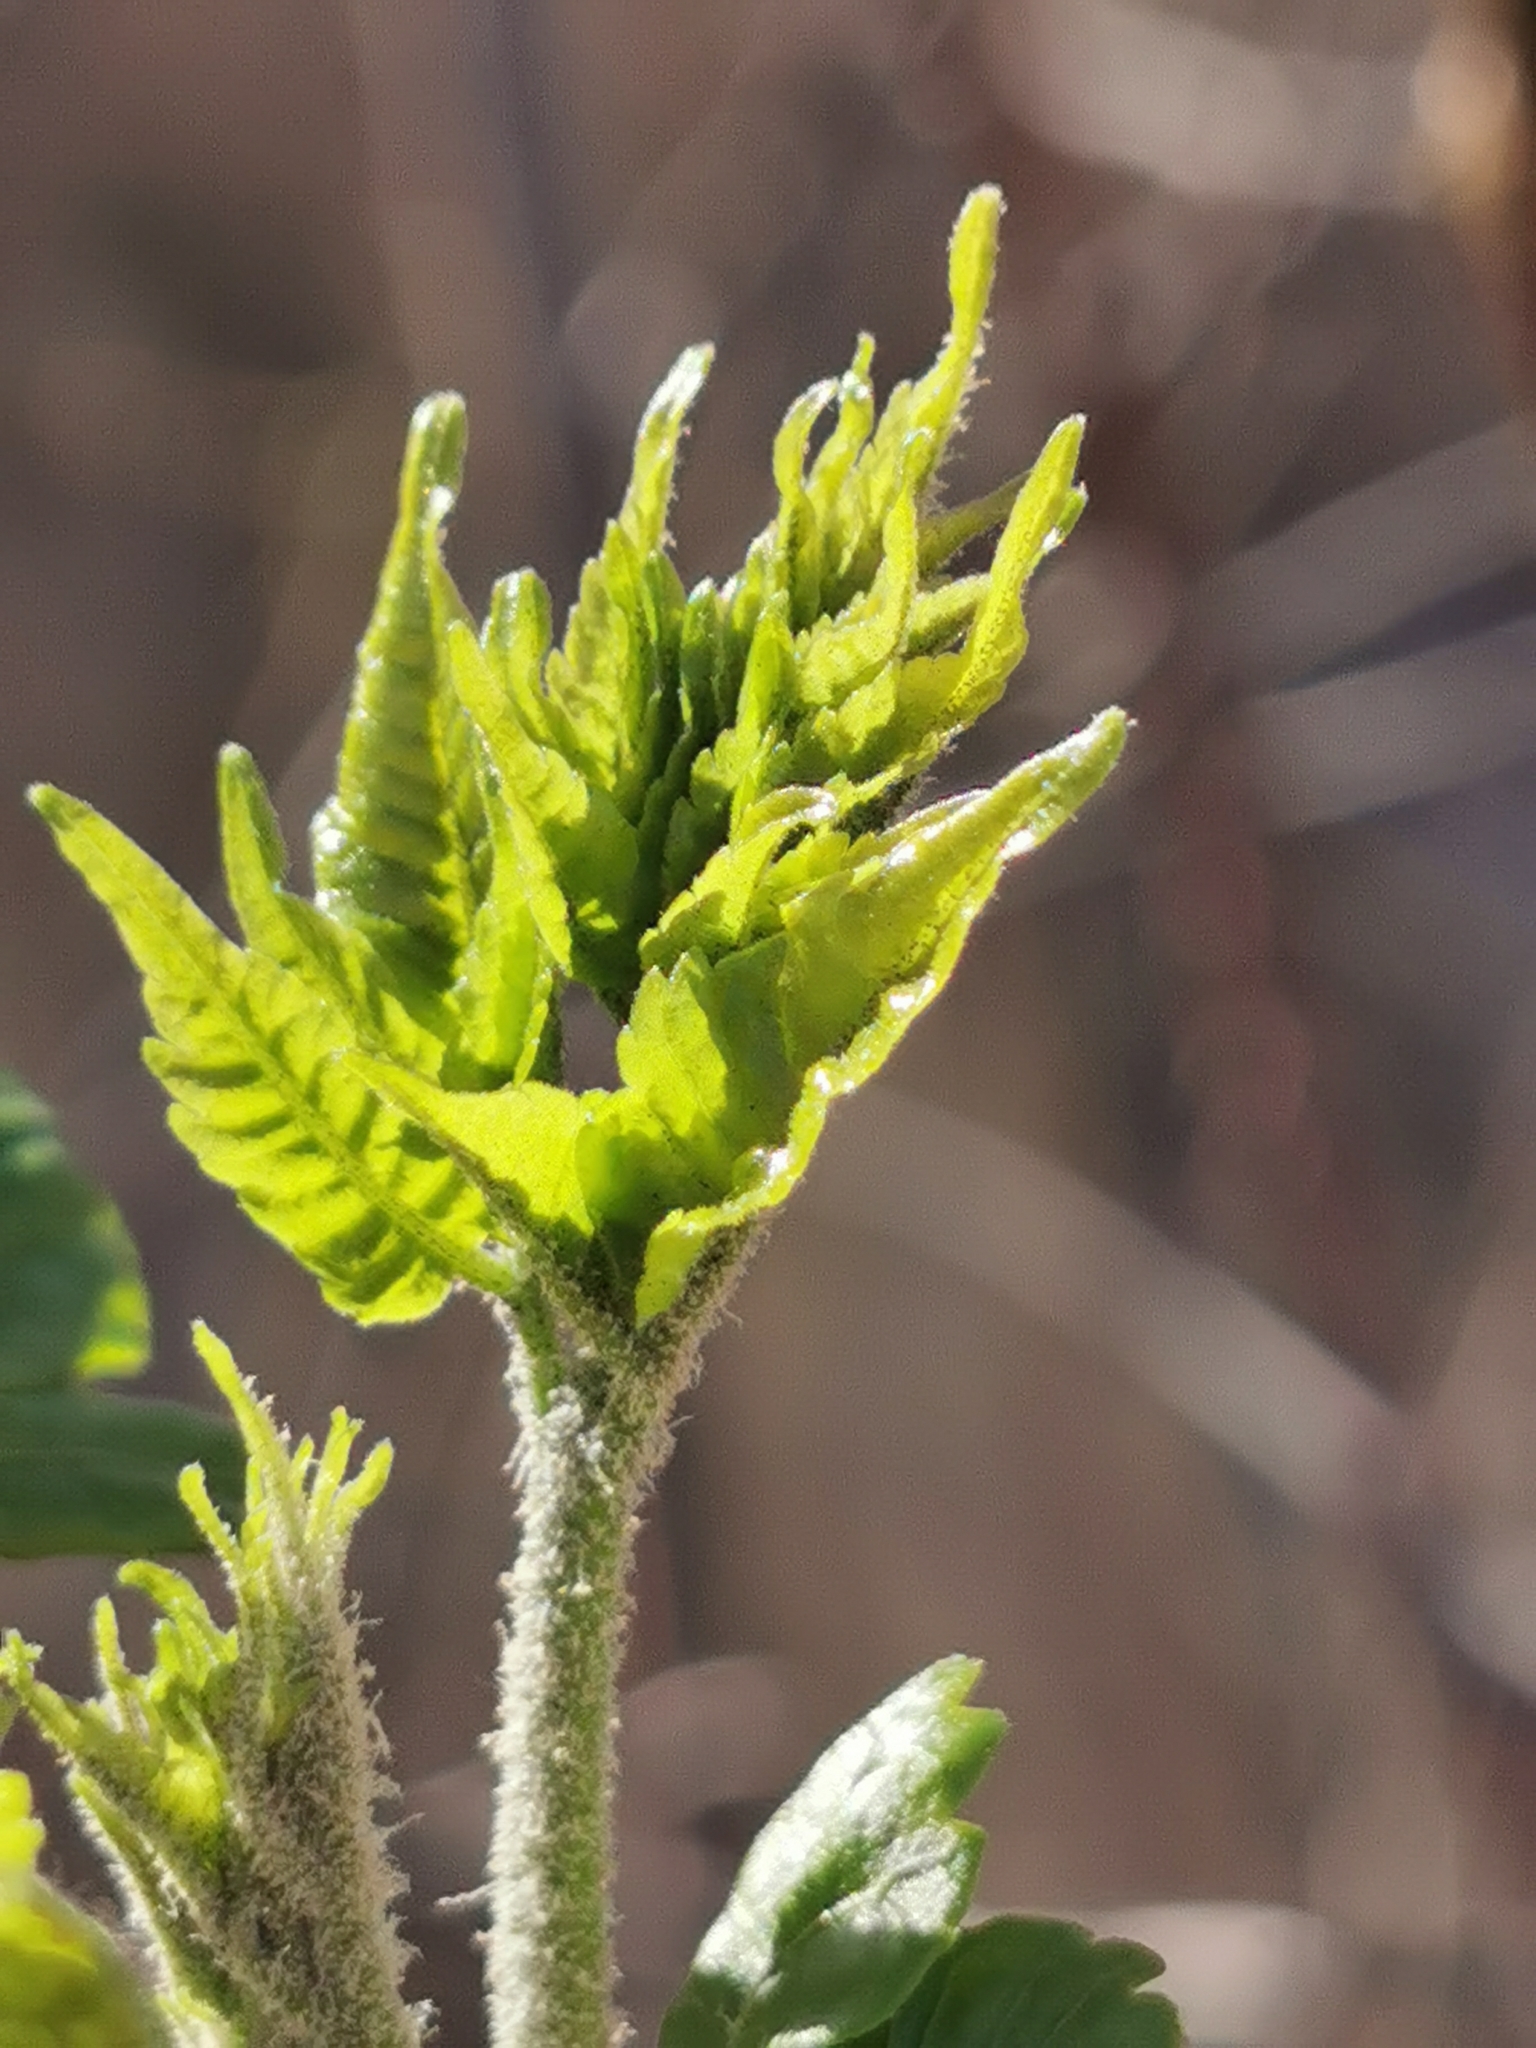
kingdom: Plantae
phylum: Tracheophyta
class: Magnoliopsida
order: Sapindales
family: Meliaceae
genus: Melia
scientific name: Melia azedarach
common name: Chinaberrytree
